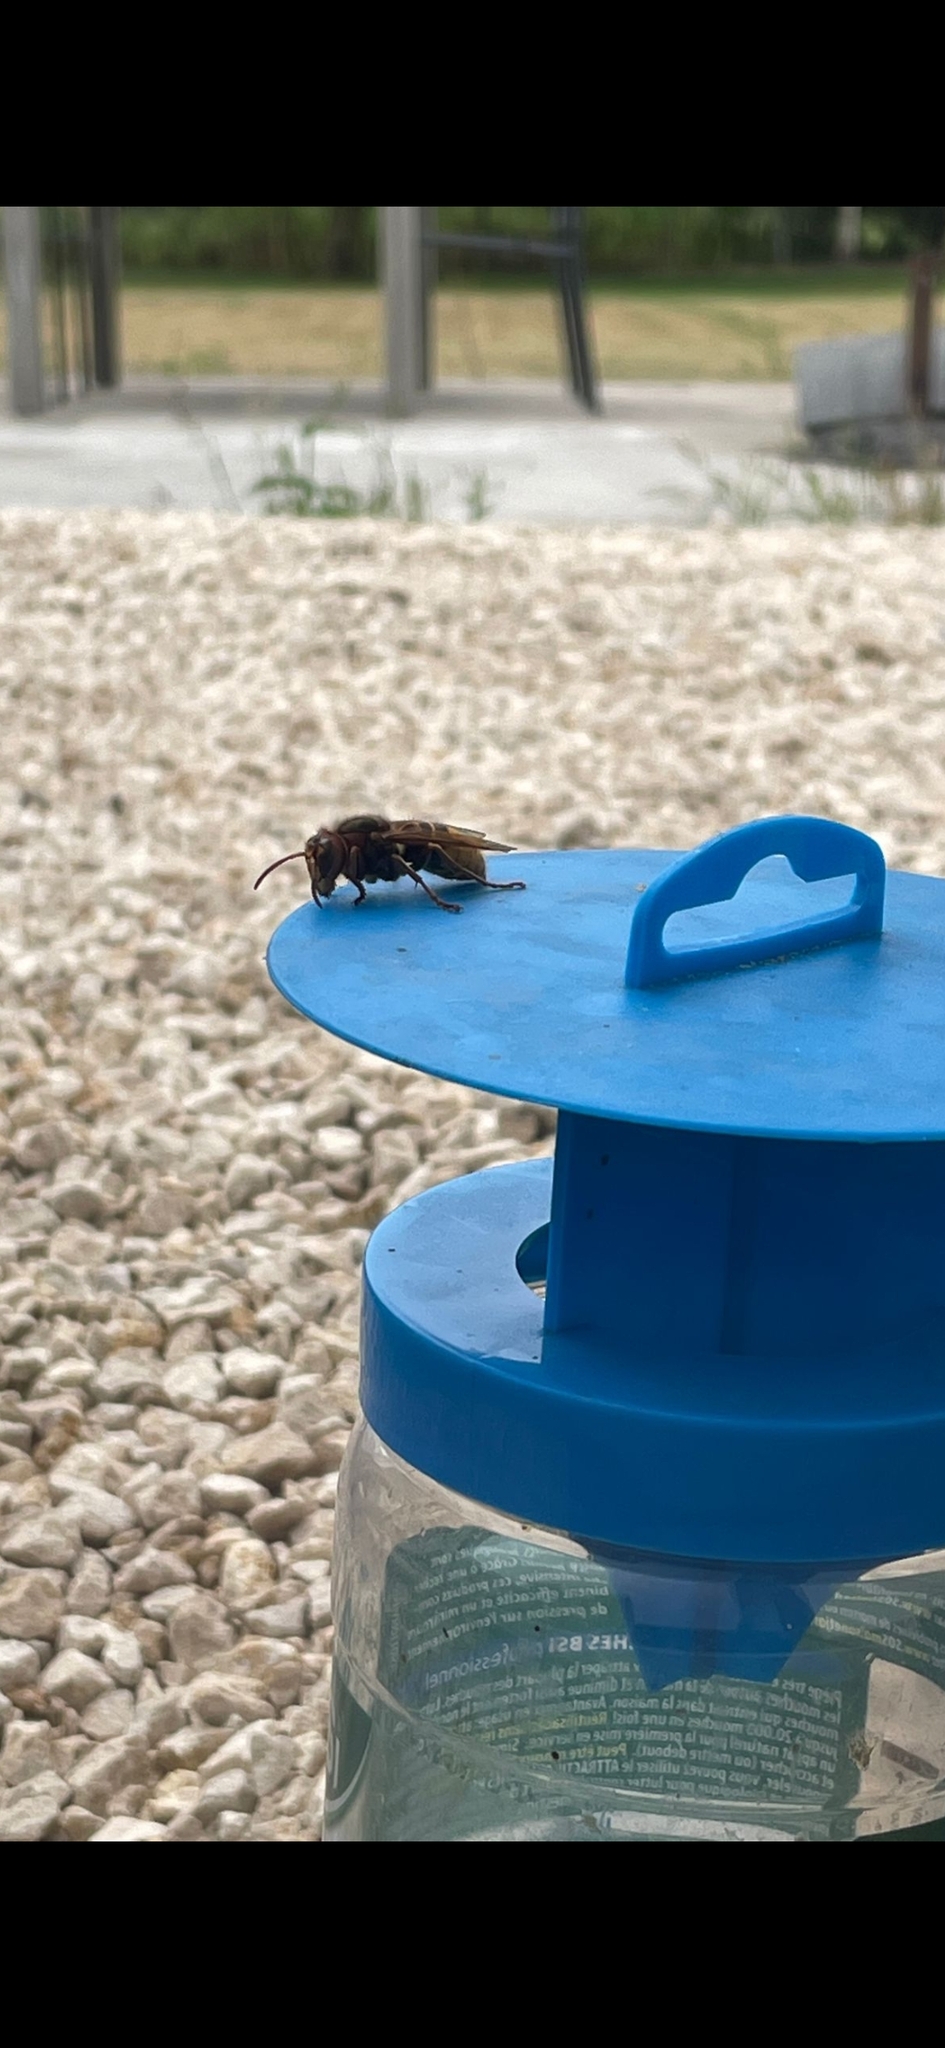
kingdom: Animalia
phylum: Arthropoda
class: Insecta
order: Hymenoptera
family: Vespidae
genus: Vespa
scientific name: Vespa crabro
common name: Hornet
